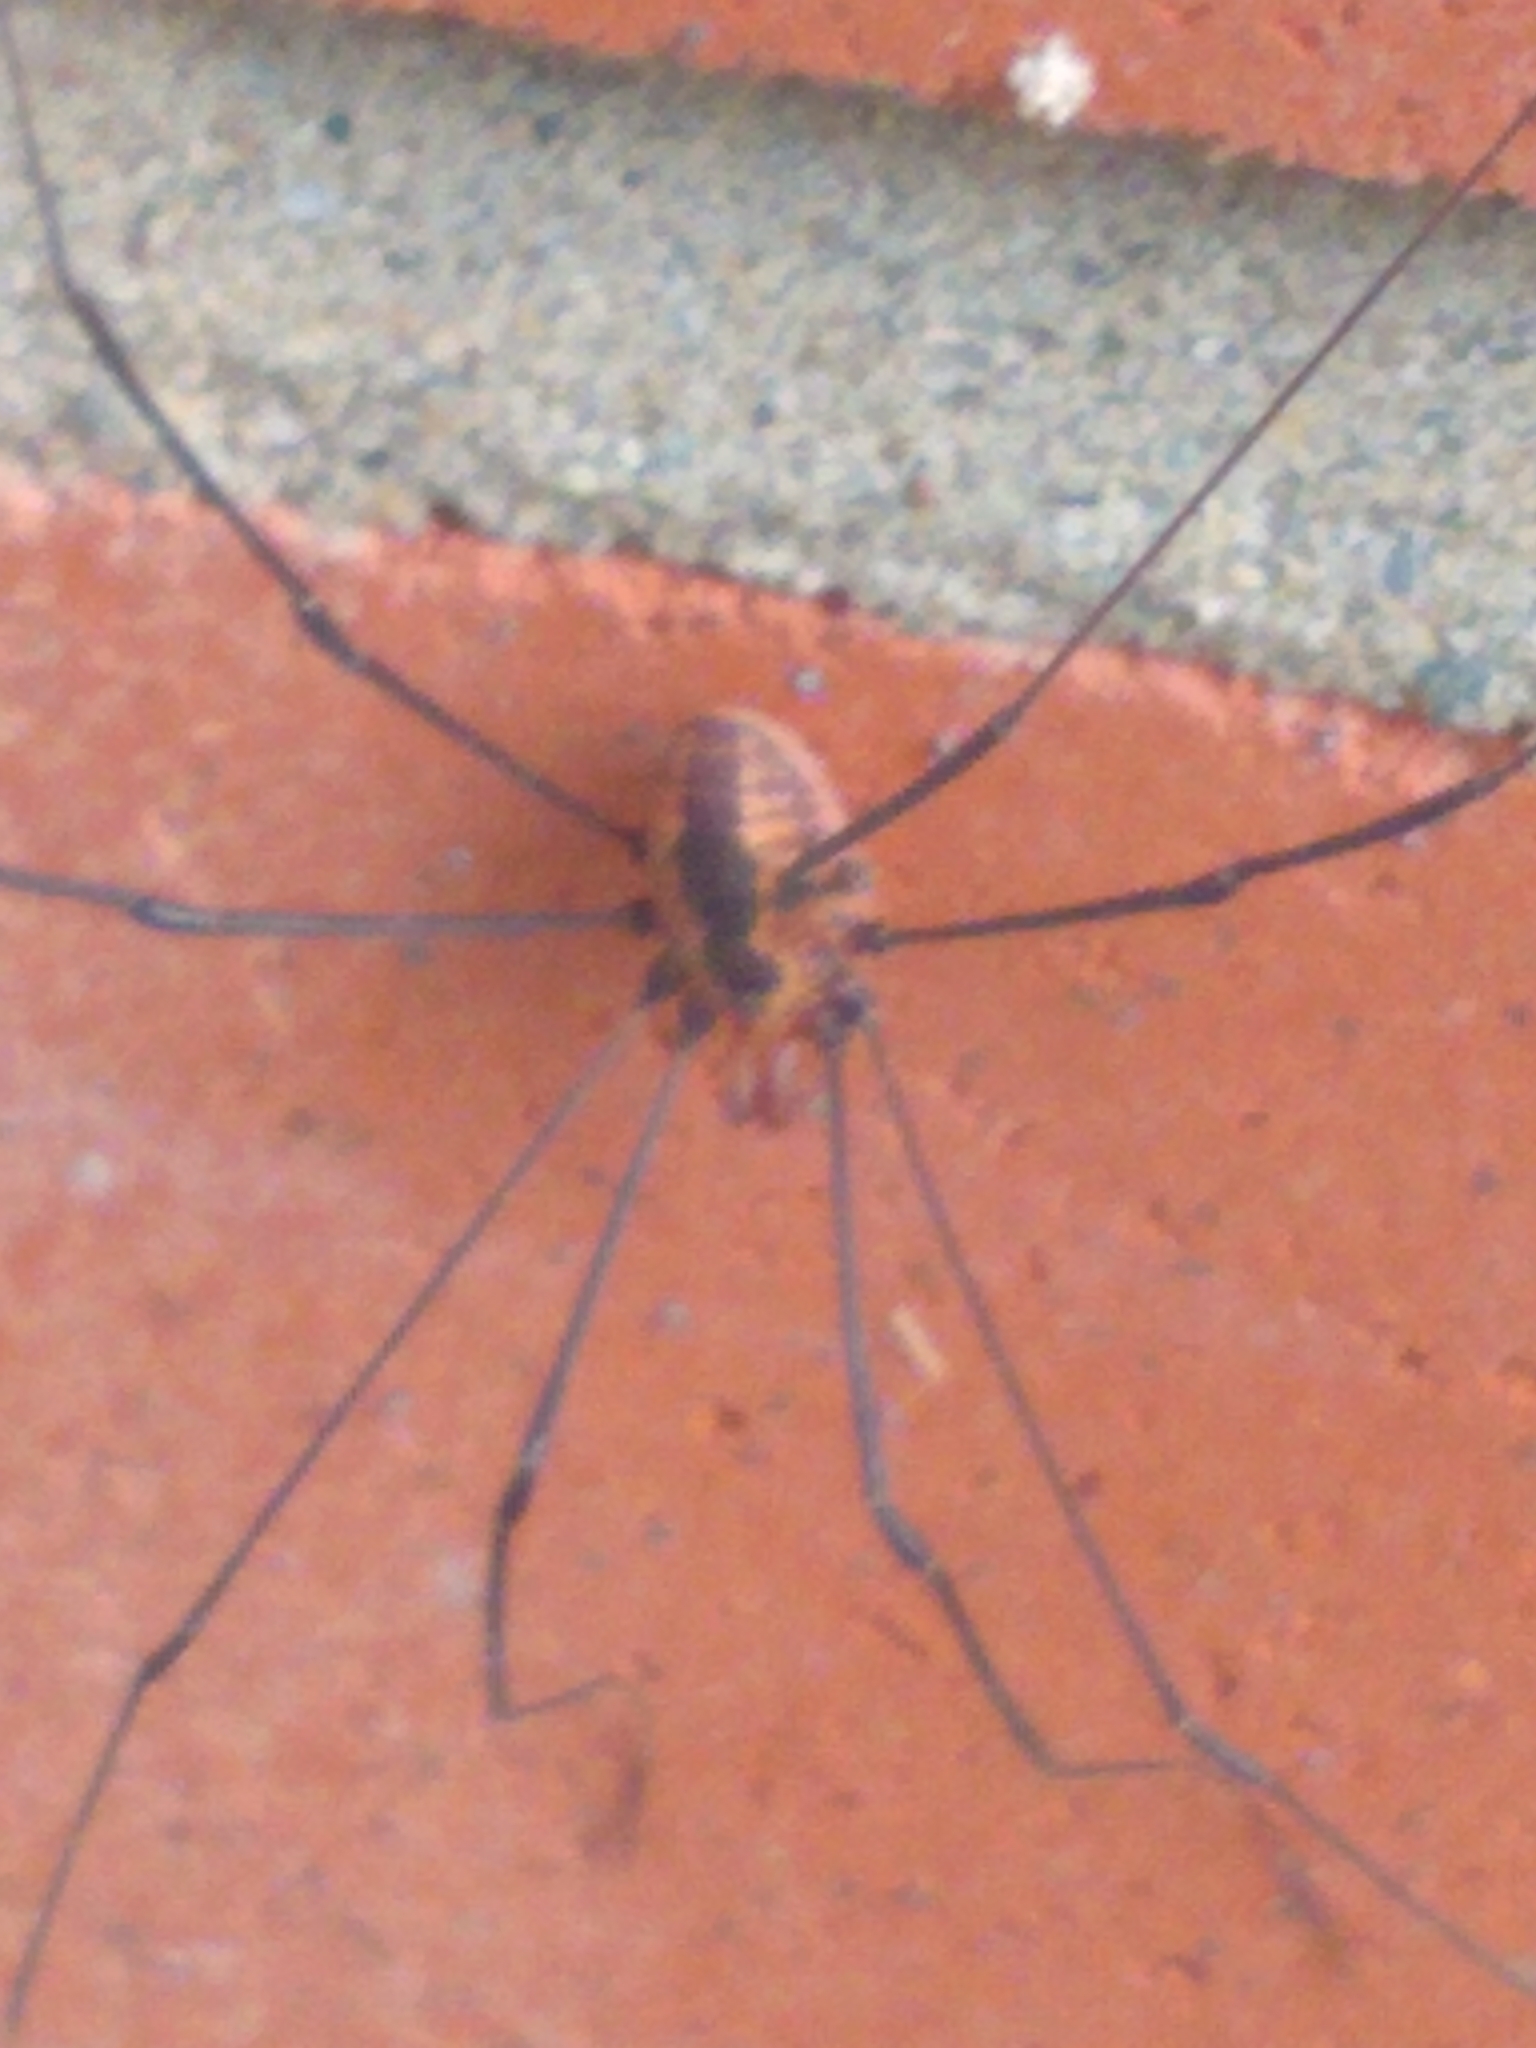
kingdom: Animalia
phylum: Arthropoda
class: Arachnida
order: Opiliones
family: Sclerosomatidae
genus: Leiobunum
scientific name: Leiobunum vittatum
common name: Eastern harvestman
